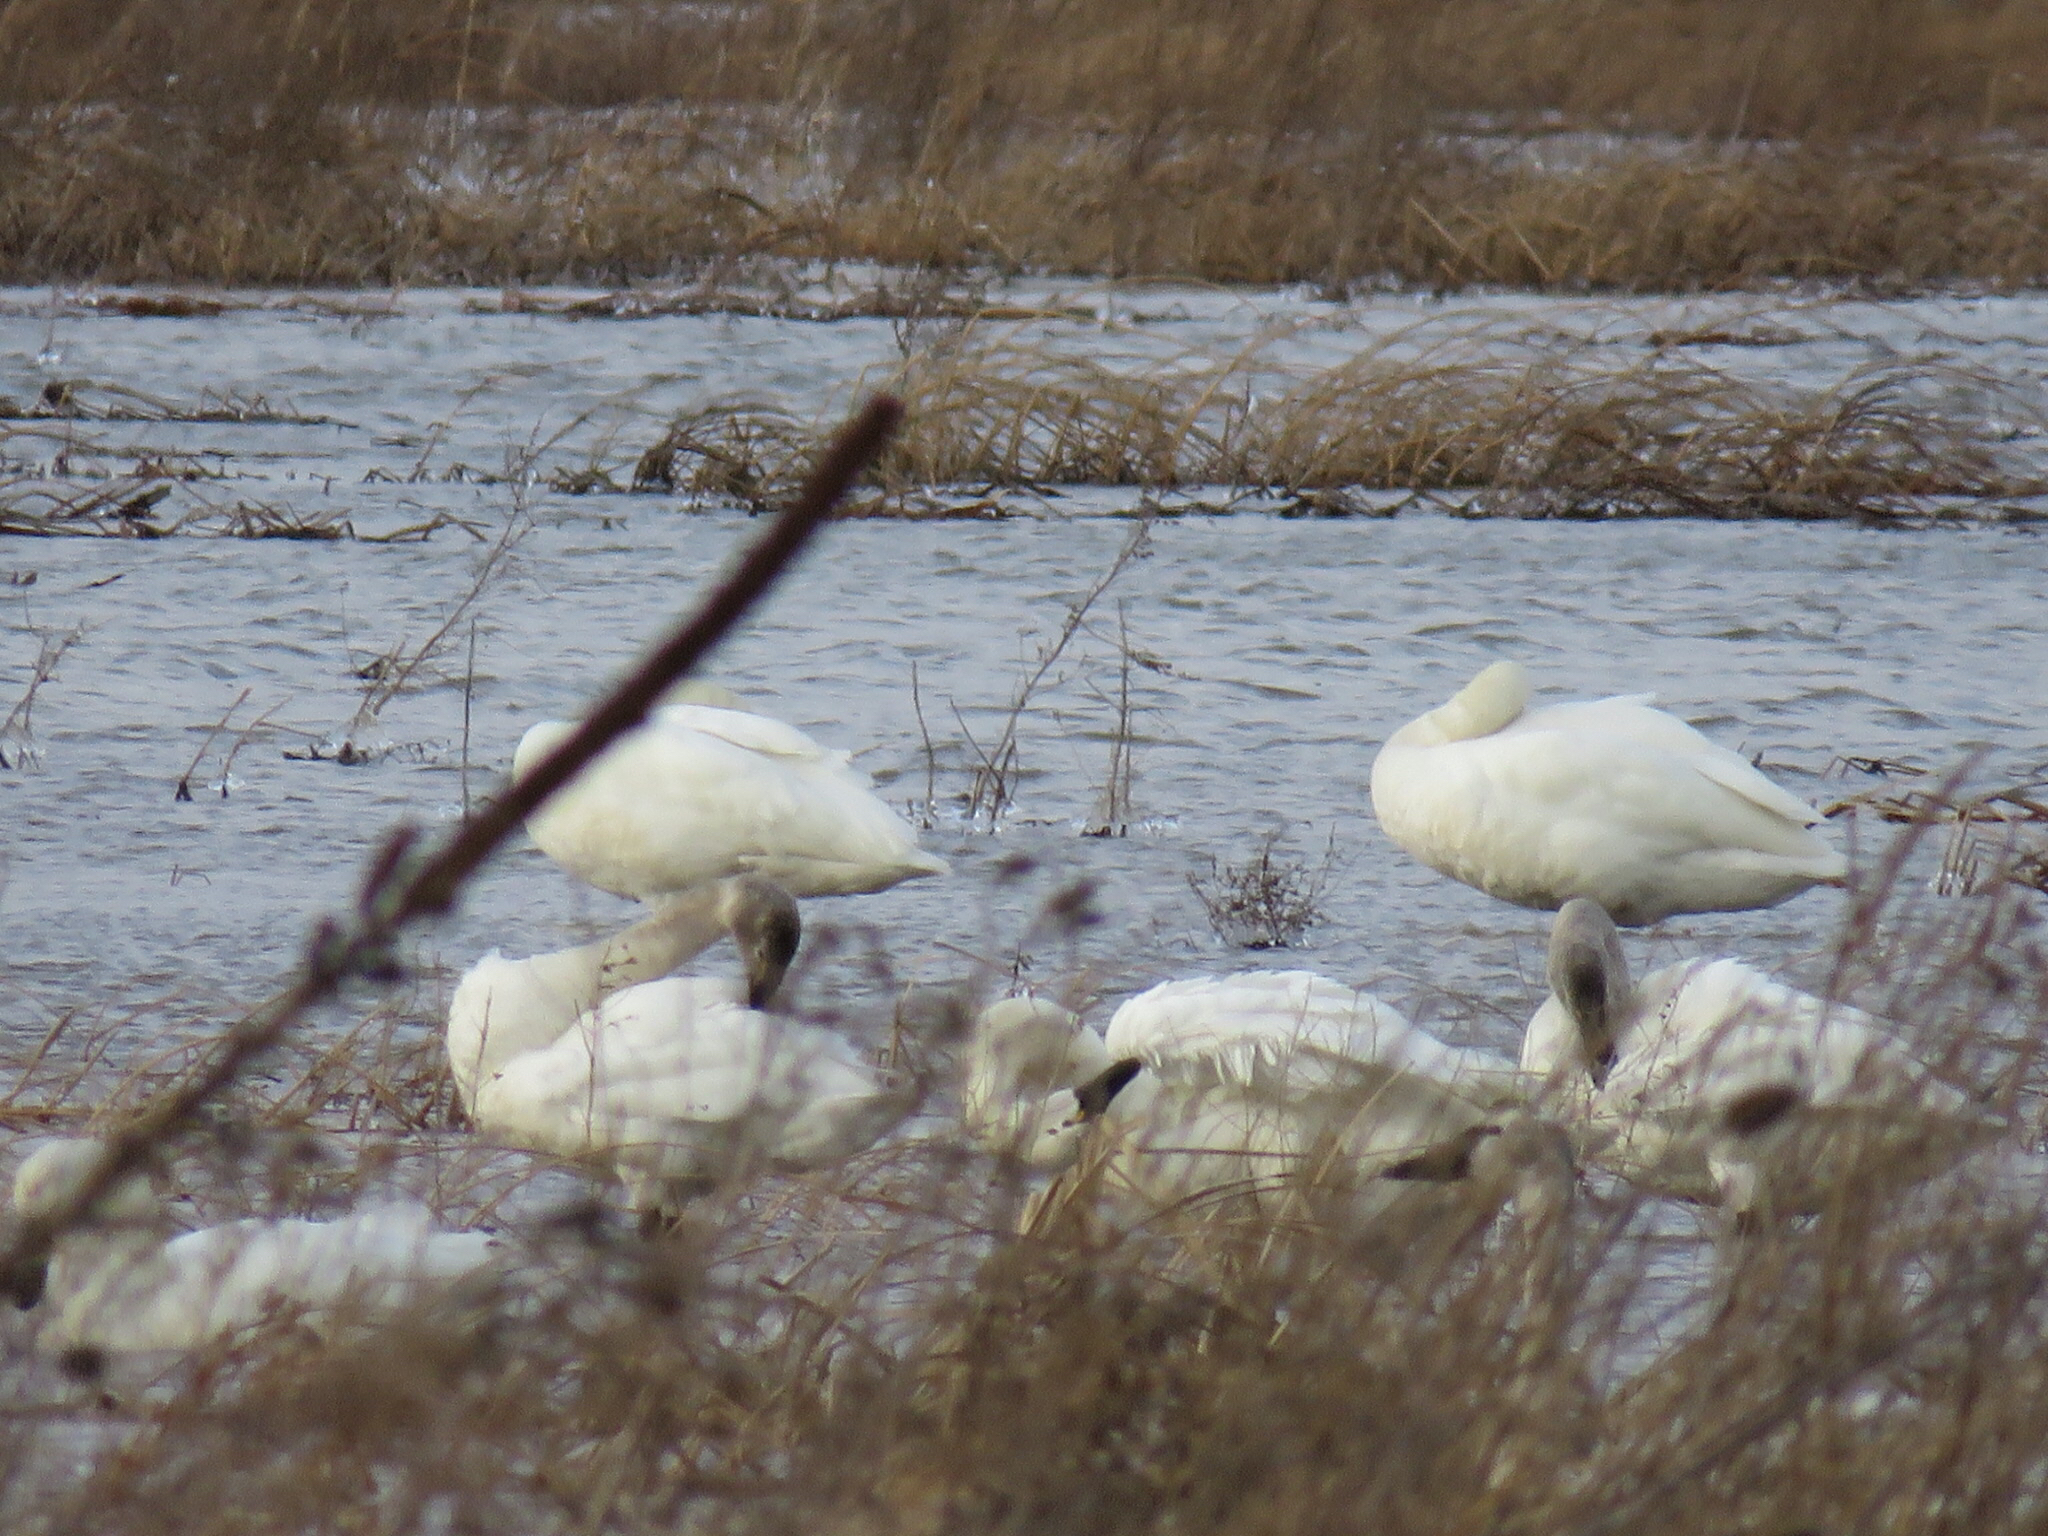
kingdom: Animalia
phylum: Chordata
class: Aves
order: Anseriformes
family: Anatidae
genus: Cygnus
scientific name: Cygnus columbianus
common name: Tundra swan
